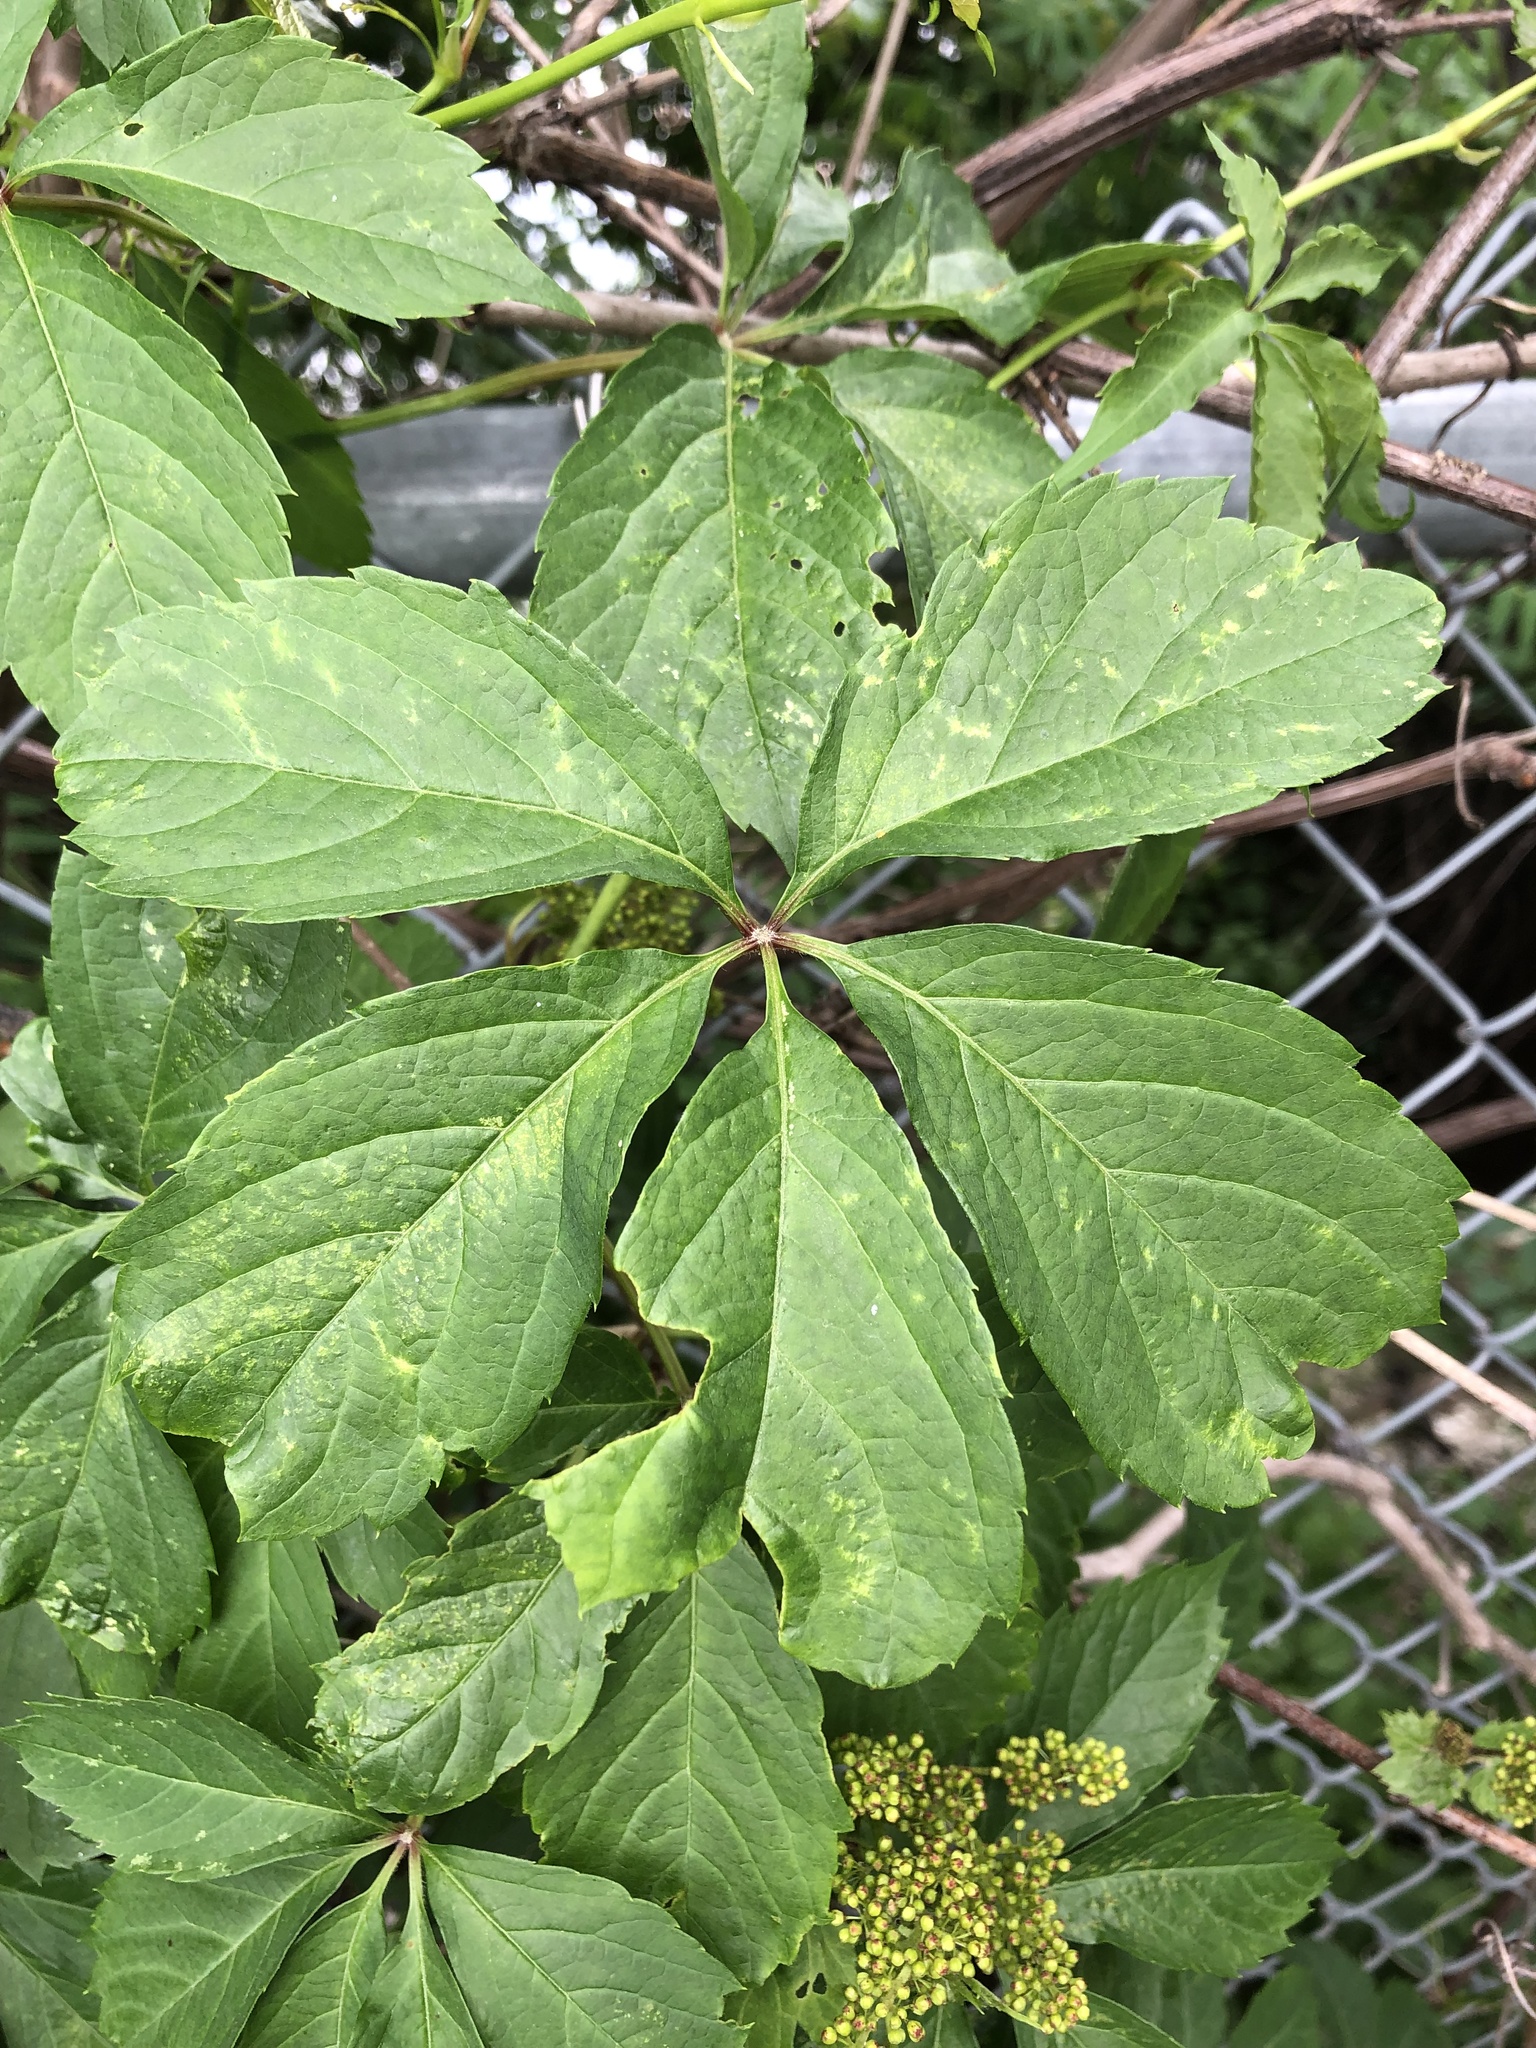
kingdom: Plantae
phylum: Tracheophyta
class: Magnoliopsida
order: Vitales
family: Vitaceae
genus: Parthenocissus
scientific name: Parthenocissus quinquefolia
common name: Virginia-creeper
